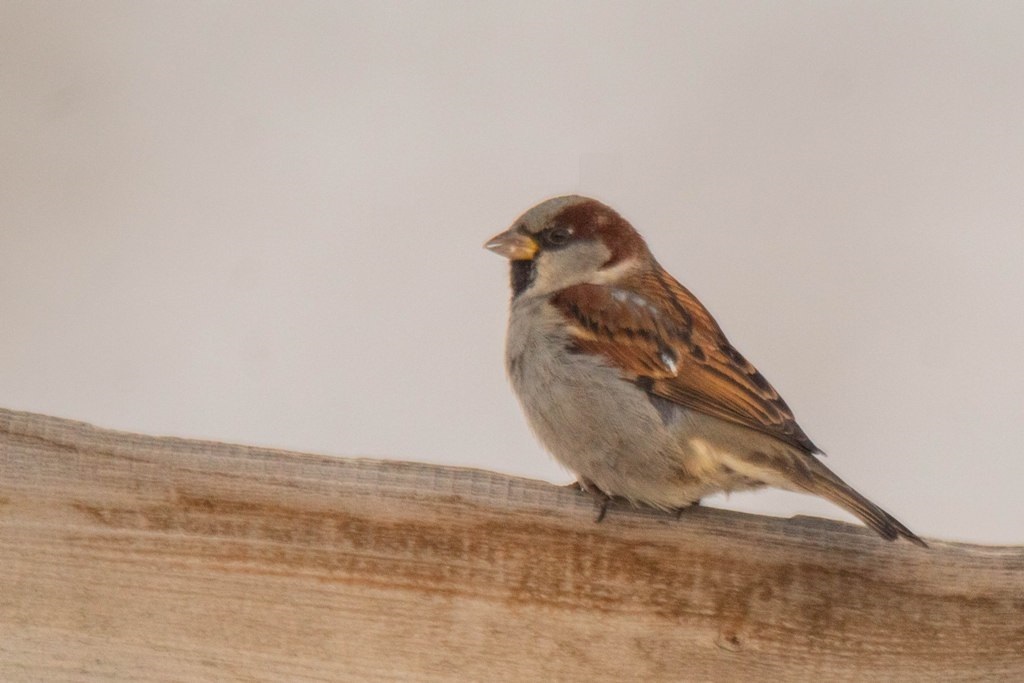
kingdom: Animalia
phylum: Chordata
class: Aves
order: Passeriformes
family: Passeridae
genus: Passer
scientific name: Passer domesticus
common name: House sparrow
